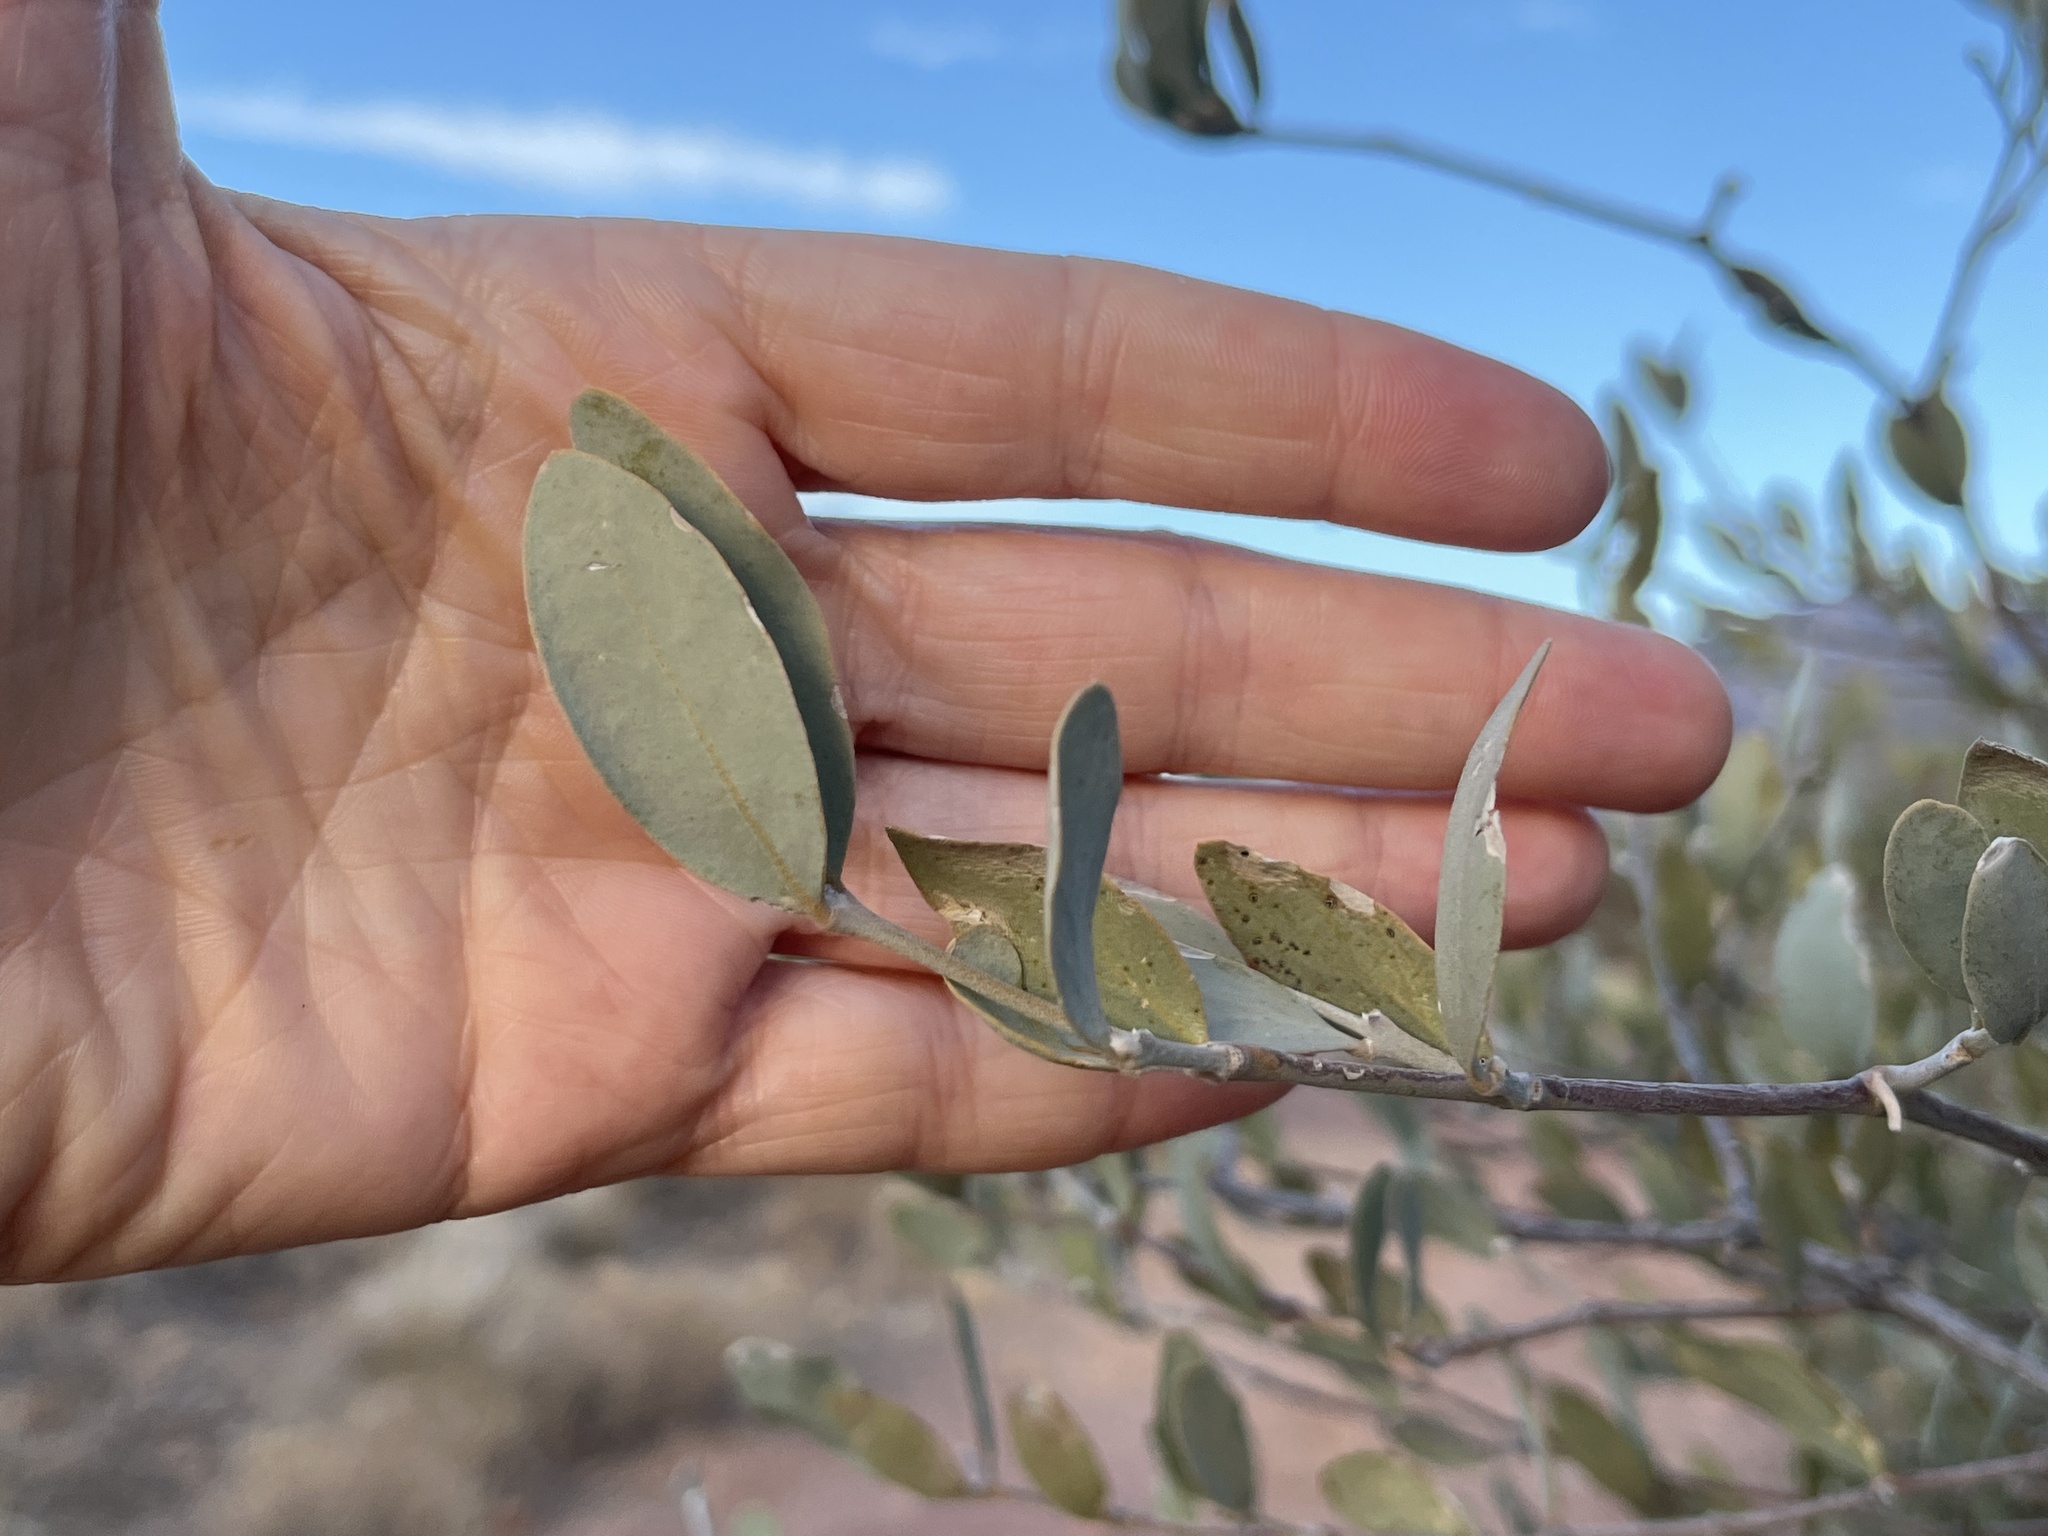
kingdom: Plantae
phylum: Tracheophyta
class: Magnoliopsida
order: Caryophyllales
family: Simmondsiaceae
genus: Simmondsia
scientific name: Simmondsia chinensis
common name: Jojoba
